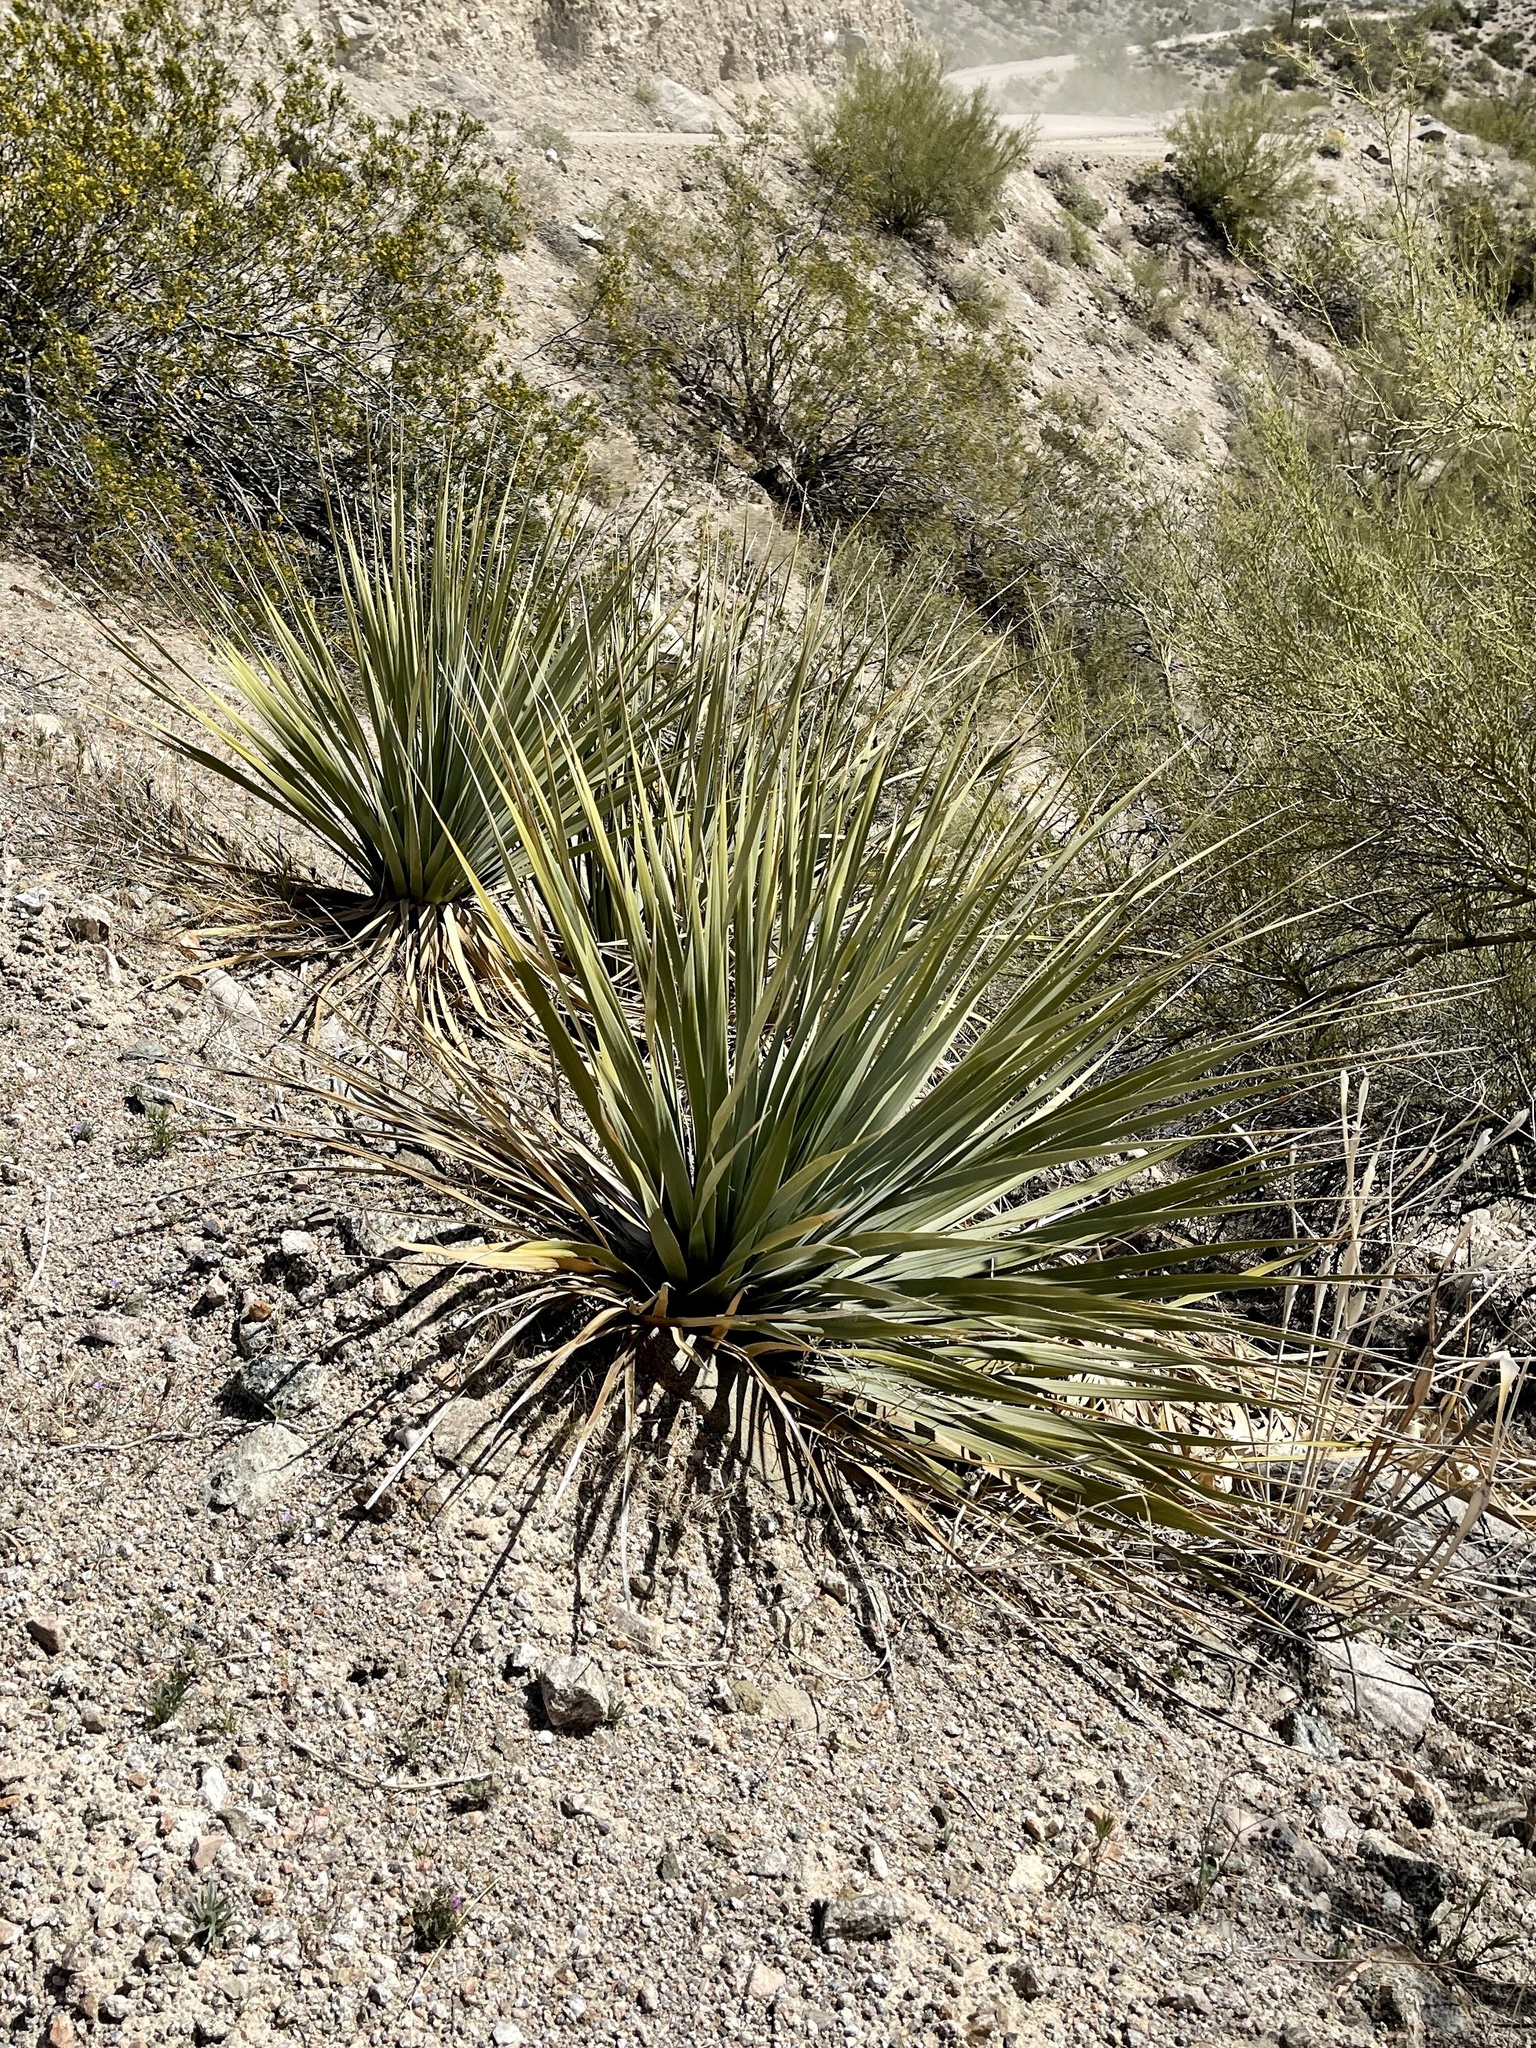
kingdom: Plantae
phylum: Tracheophyta
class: Liliopsida
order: Asparagales
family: Asparagaceae
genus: Nolina
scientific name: Nolina bigelovii
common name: Bigelow bear-grass
